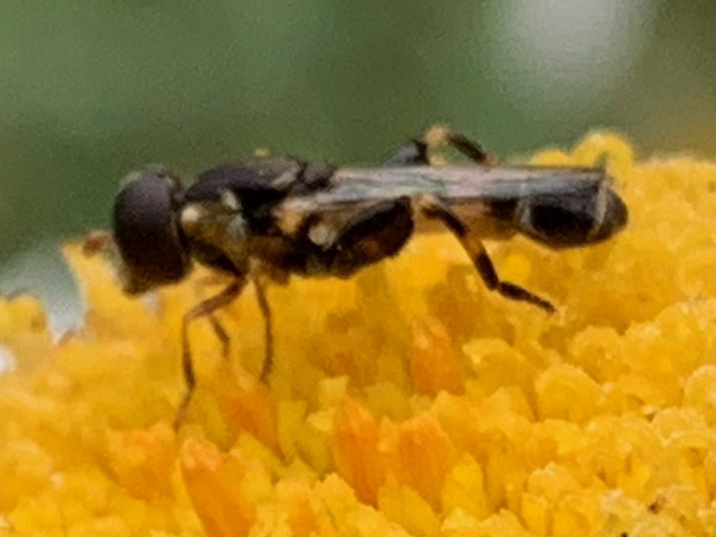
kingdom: Animalia
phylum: Arthropoda
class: Insecta
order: Diptera
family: Syrphidae
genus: Syritta
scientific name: Syritta pipiens
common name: Hover fly
